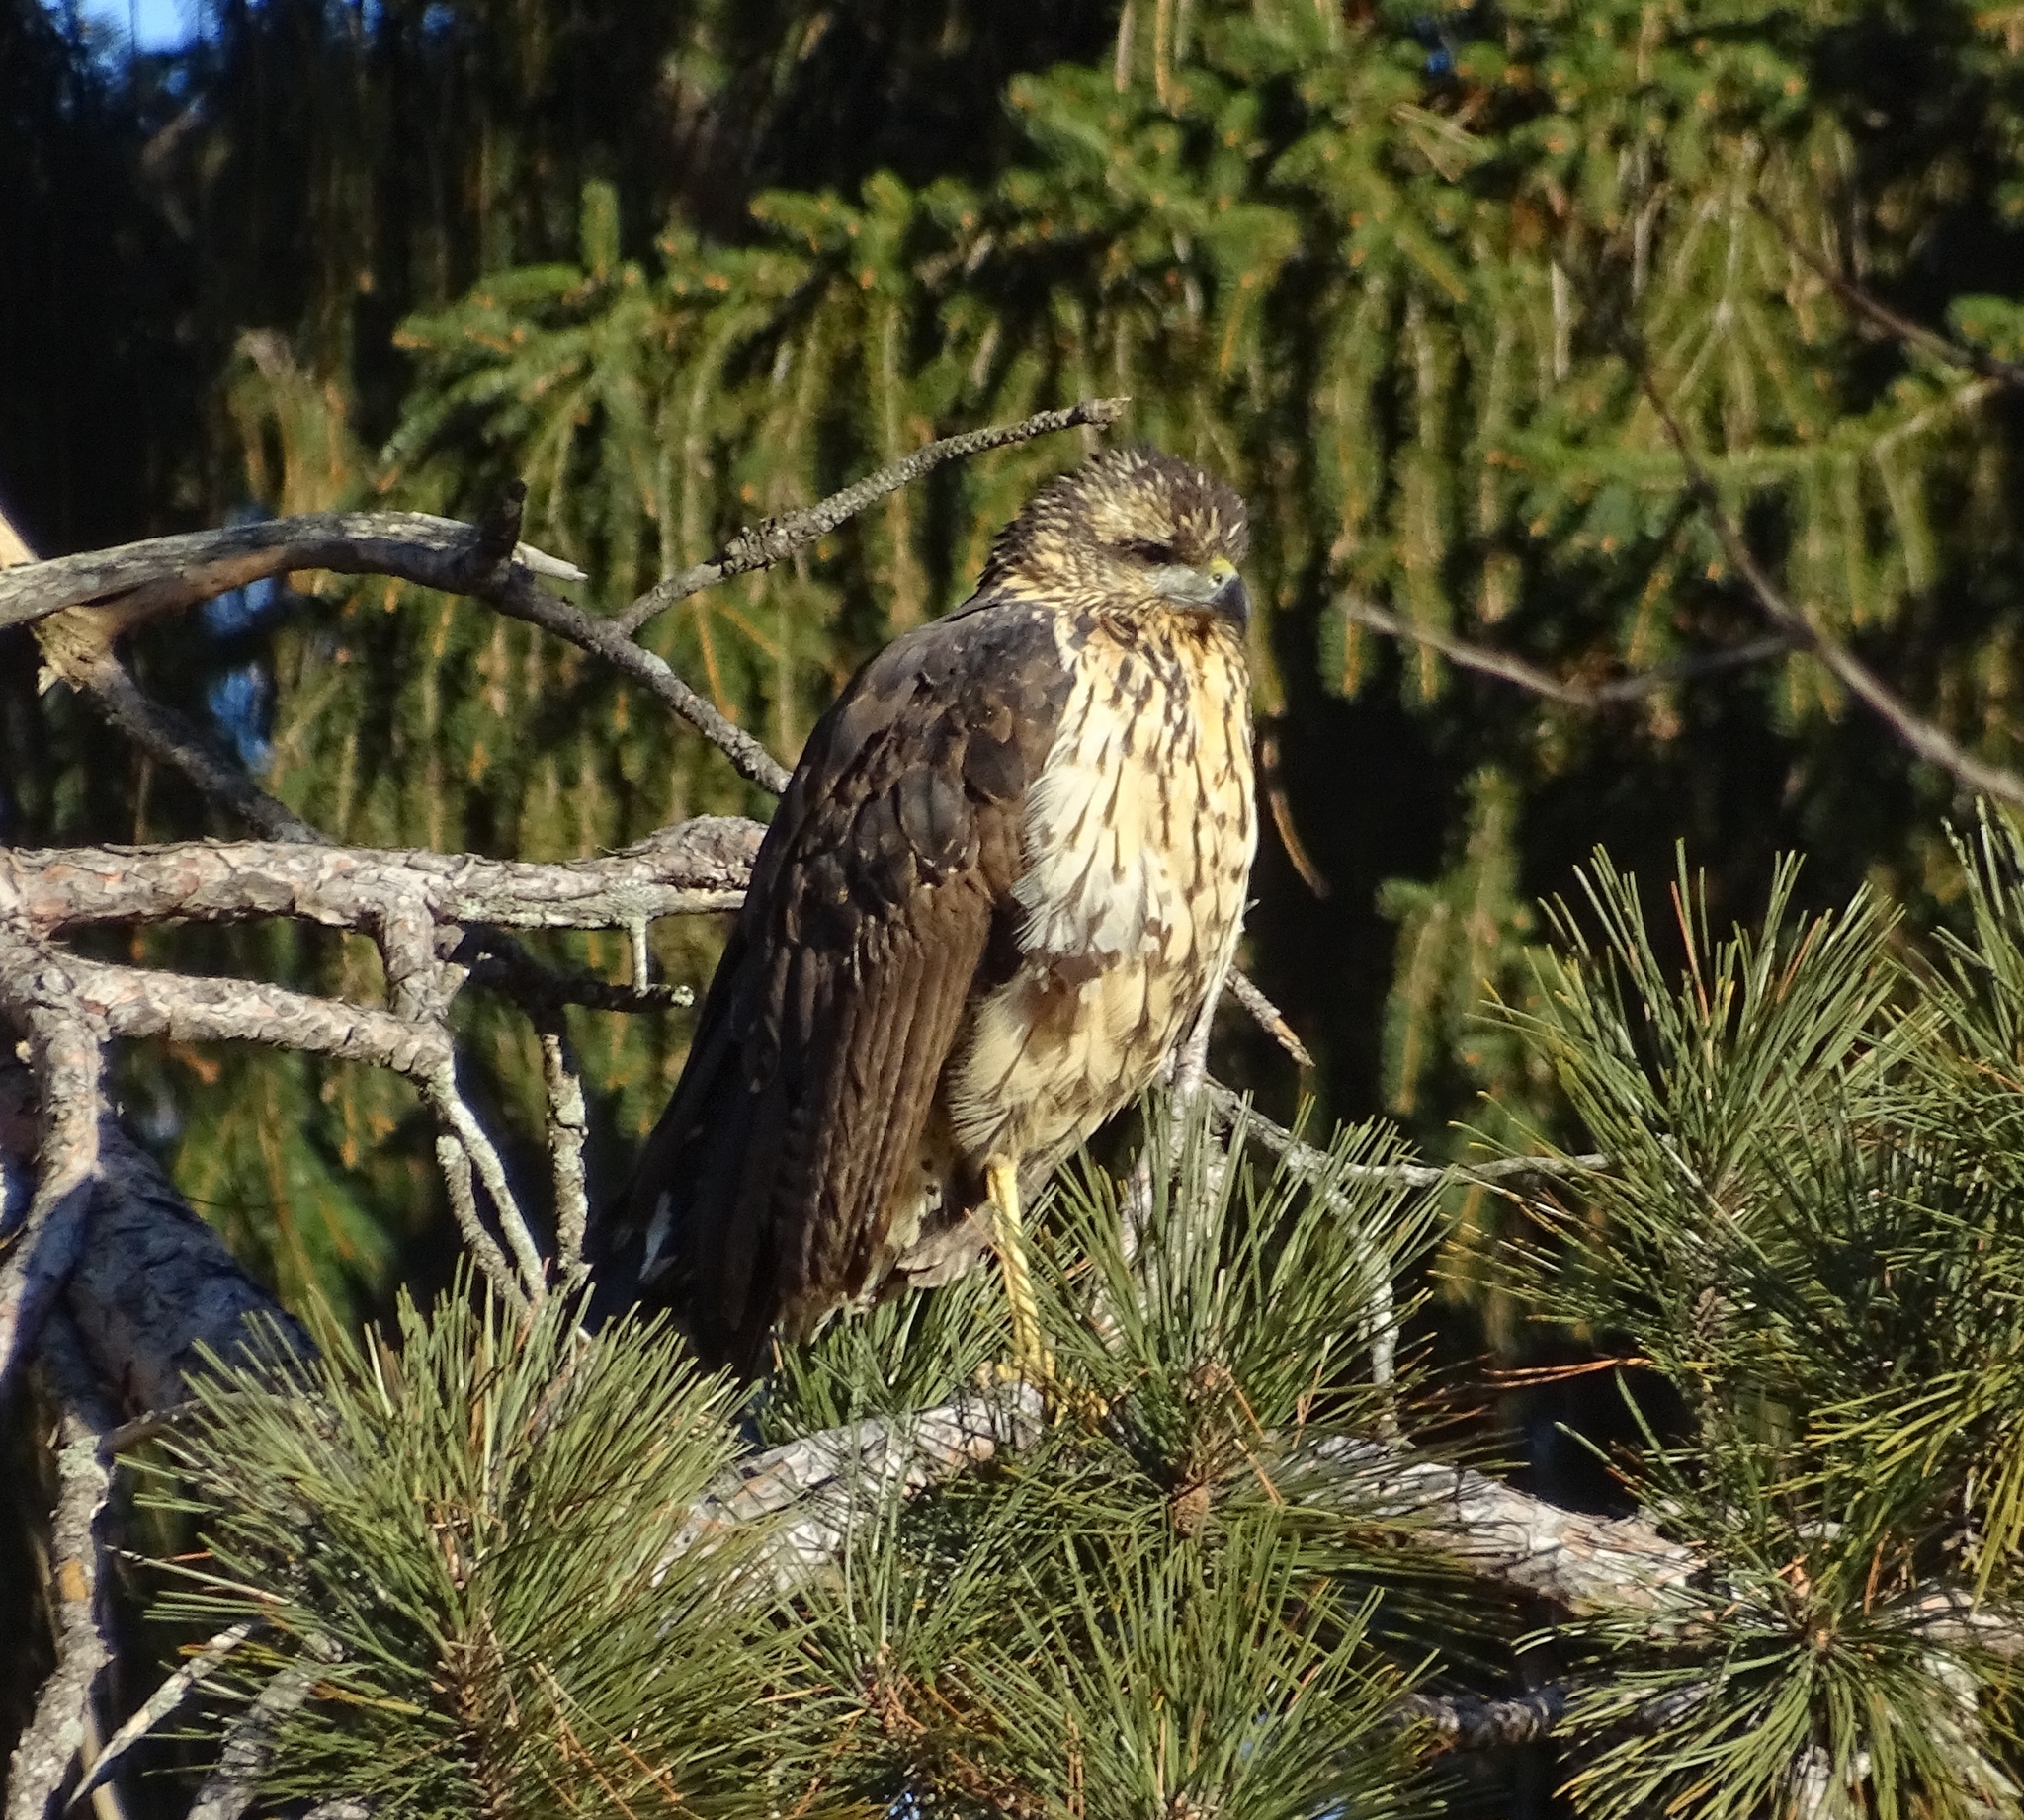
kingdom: Animalia
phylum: Chordata
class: Aves
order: Accipitriformes
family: Accipitridae
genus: Buteogallus
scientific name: Buteogallus urubitinga
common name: Great black hawk
